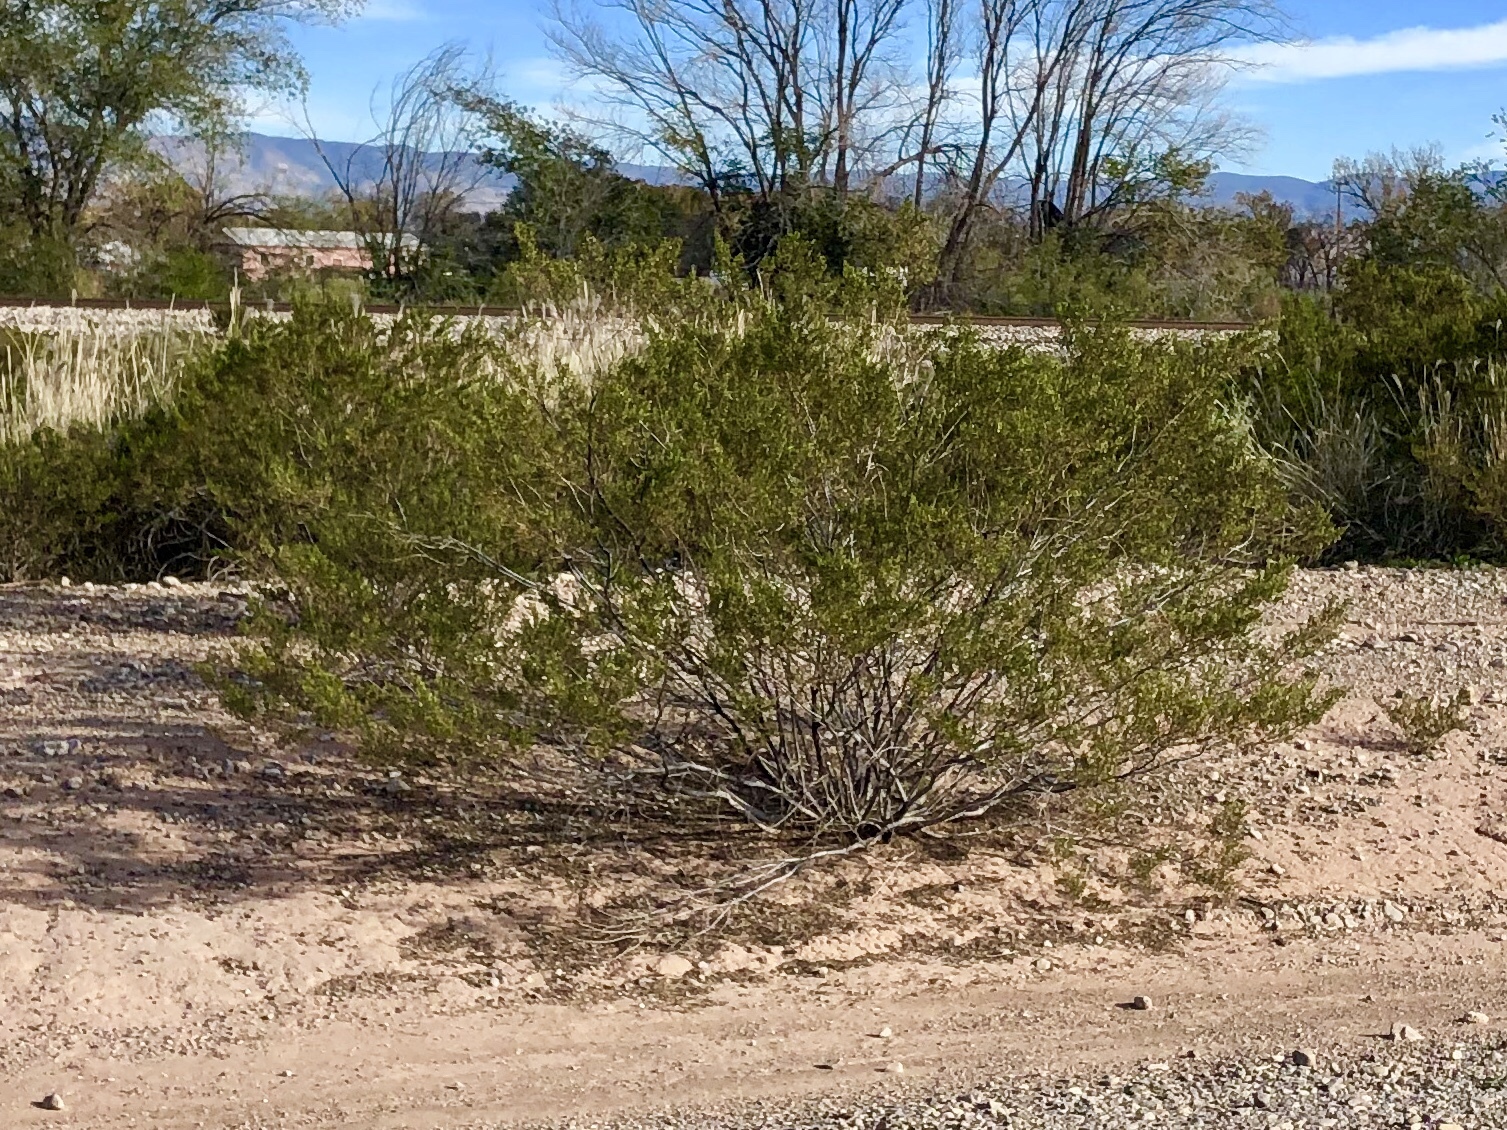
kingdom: Plantae
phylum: Tracheophyta
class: Magnoliopsida
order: Zygophyllales
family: Zygophyllaceae
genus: Larrea
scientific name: Larrea tridentata
